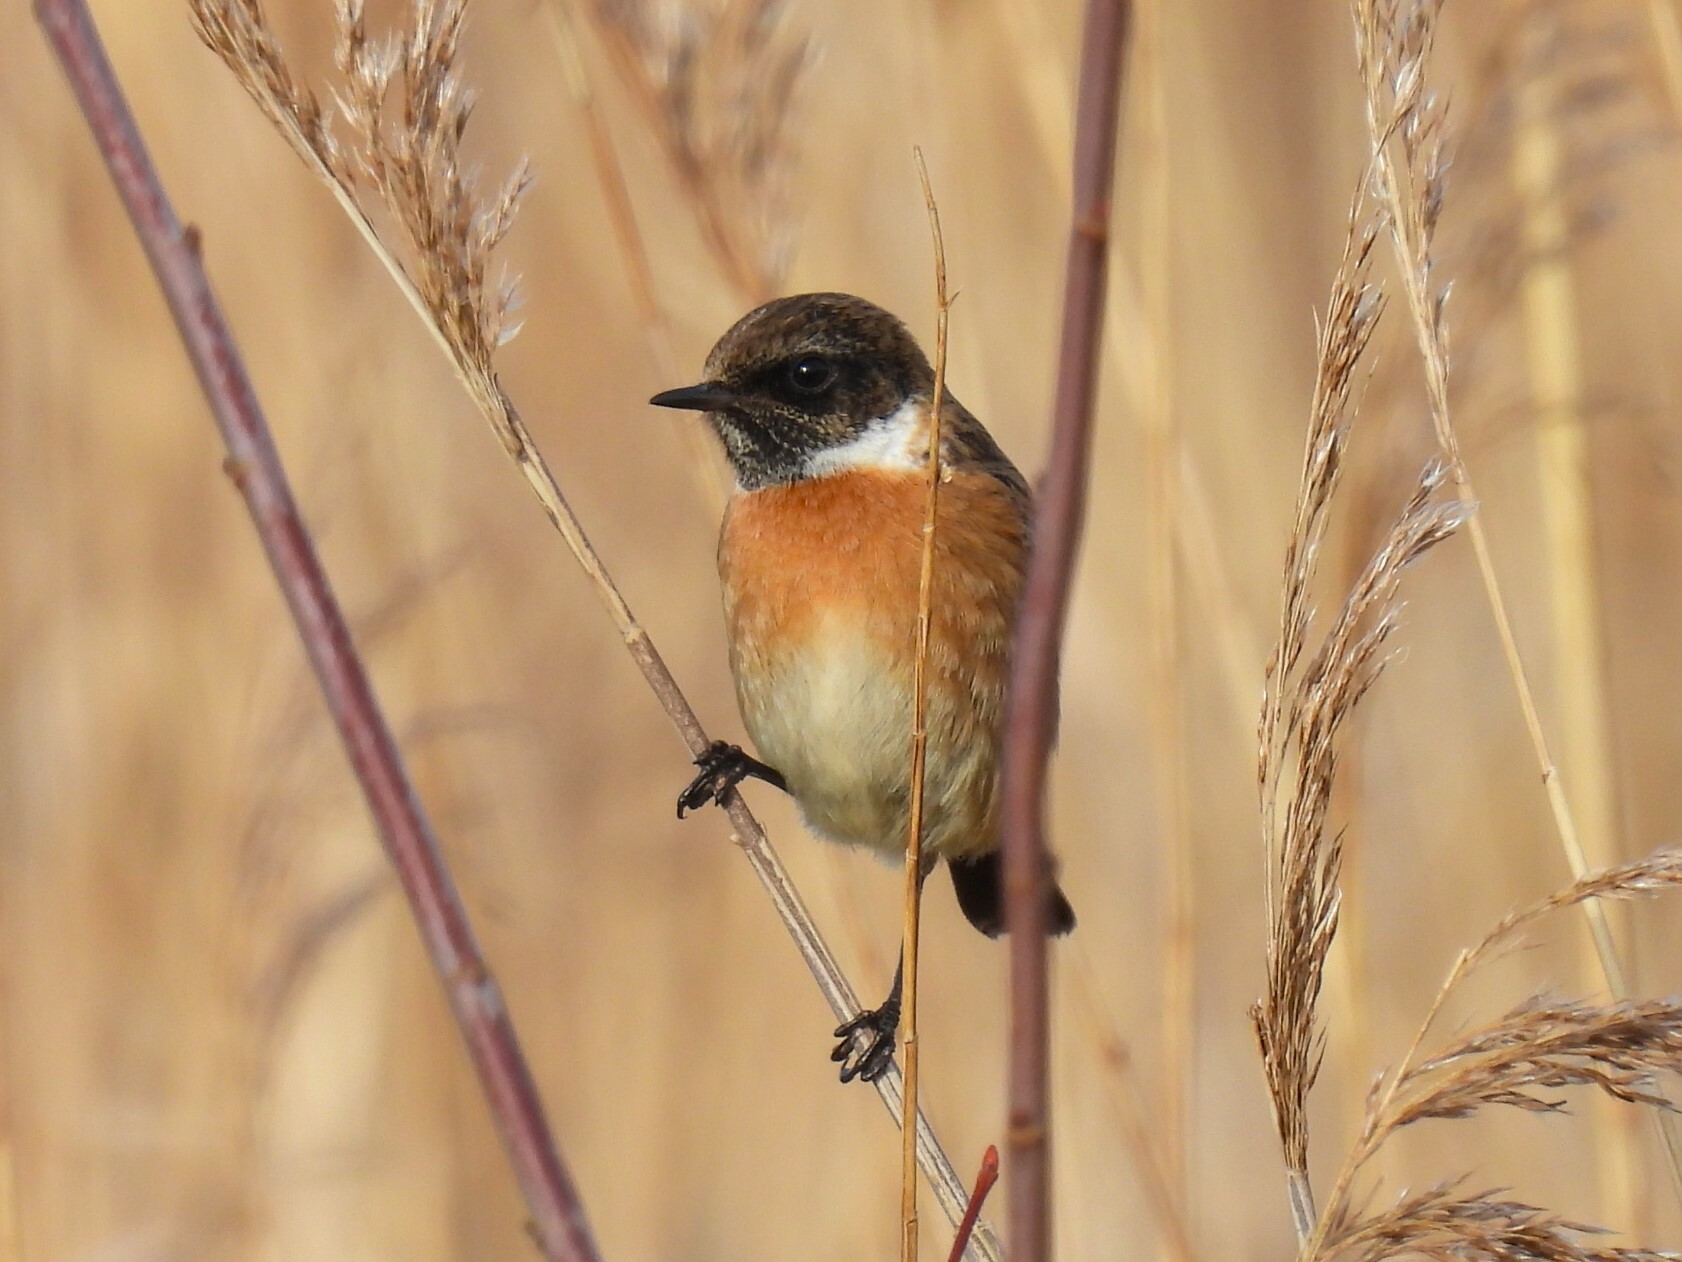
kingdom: Animalia
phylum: Chordata
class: Aves
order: Passeriformes
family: Muscicapidae
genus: Saxicola
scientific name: Saxicola rubicola
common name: European stonechat
